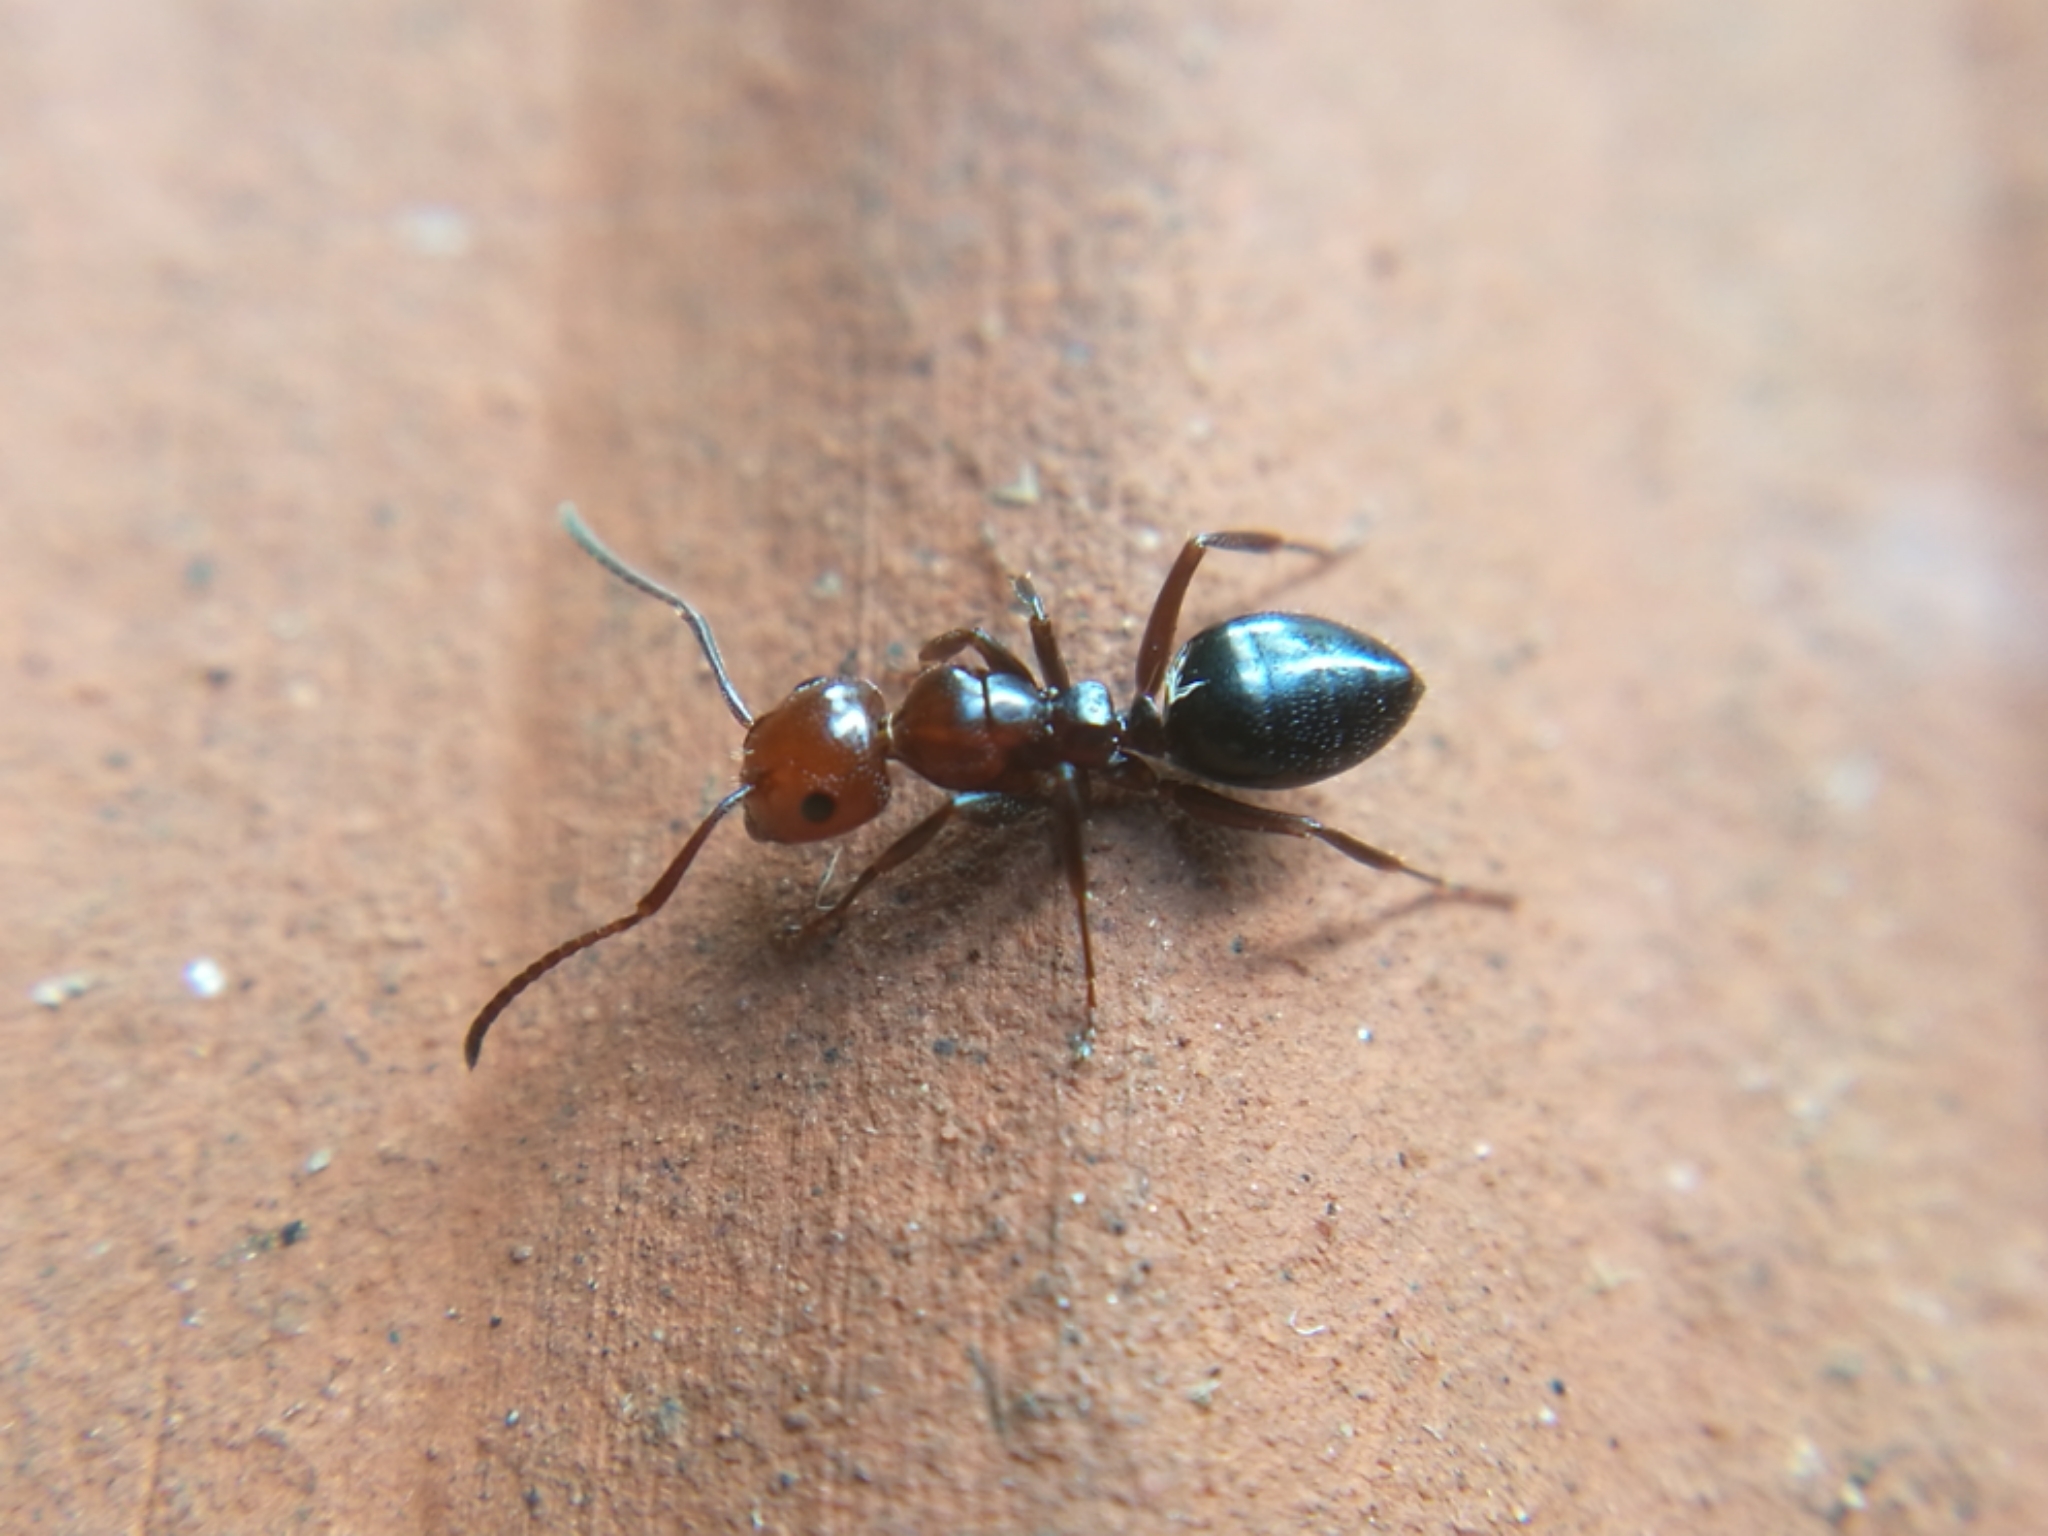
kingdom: Animalia
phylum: Arthropoda
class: Insecta
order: Hymenoptera
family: Formicidae
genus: Camponotus
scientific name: Camponotus lateralis
